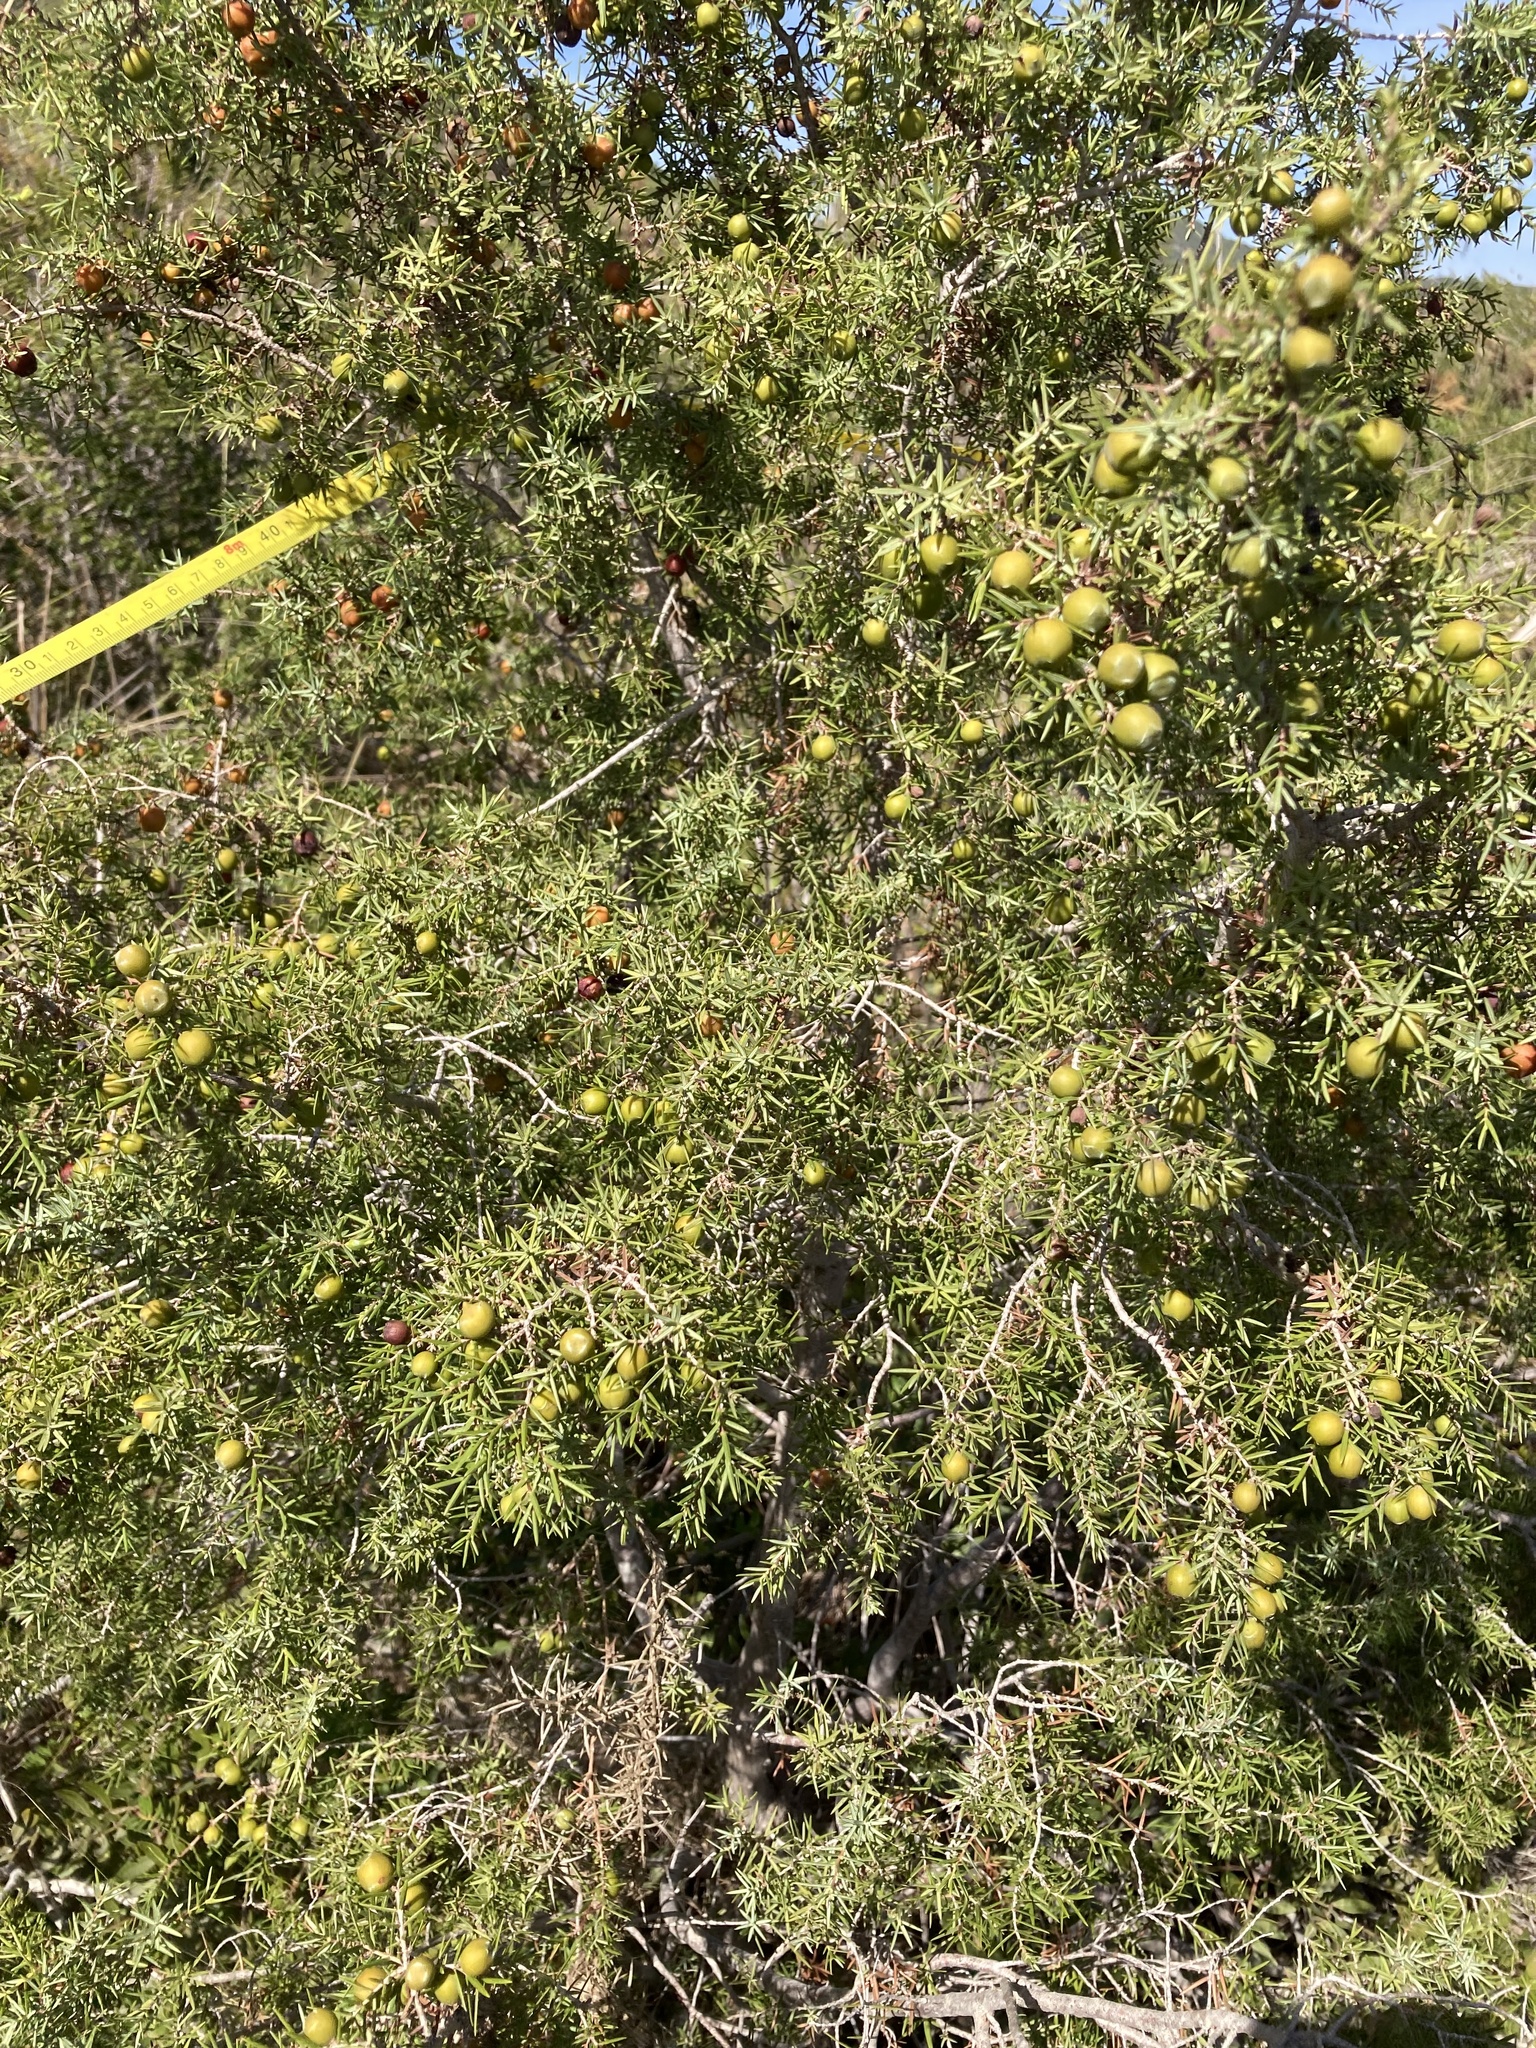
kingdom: Plantae
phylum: Tracheophyta
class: Pinopsida
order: Pinales
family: Cupressaceae
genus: Juniperus
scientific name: Juniperus oxycedrus
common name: Prickly juniper
